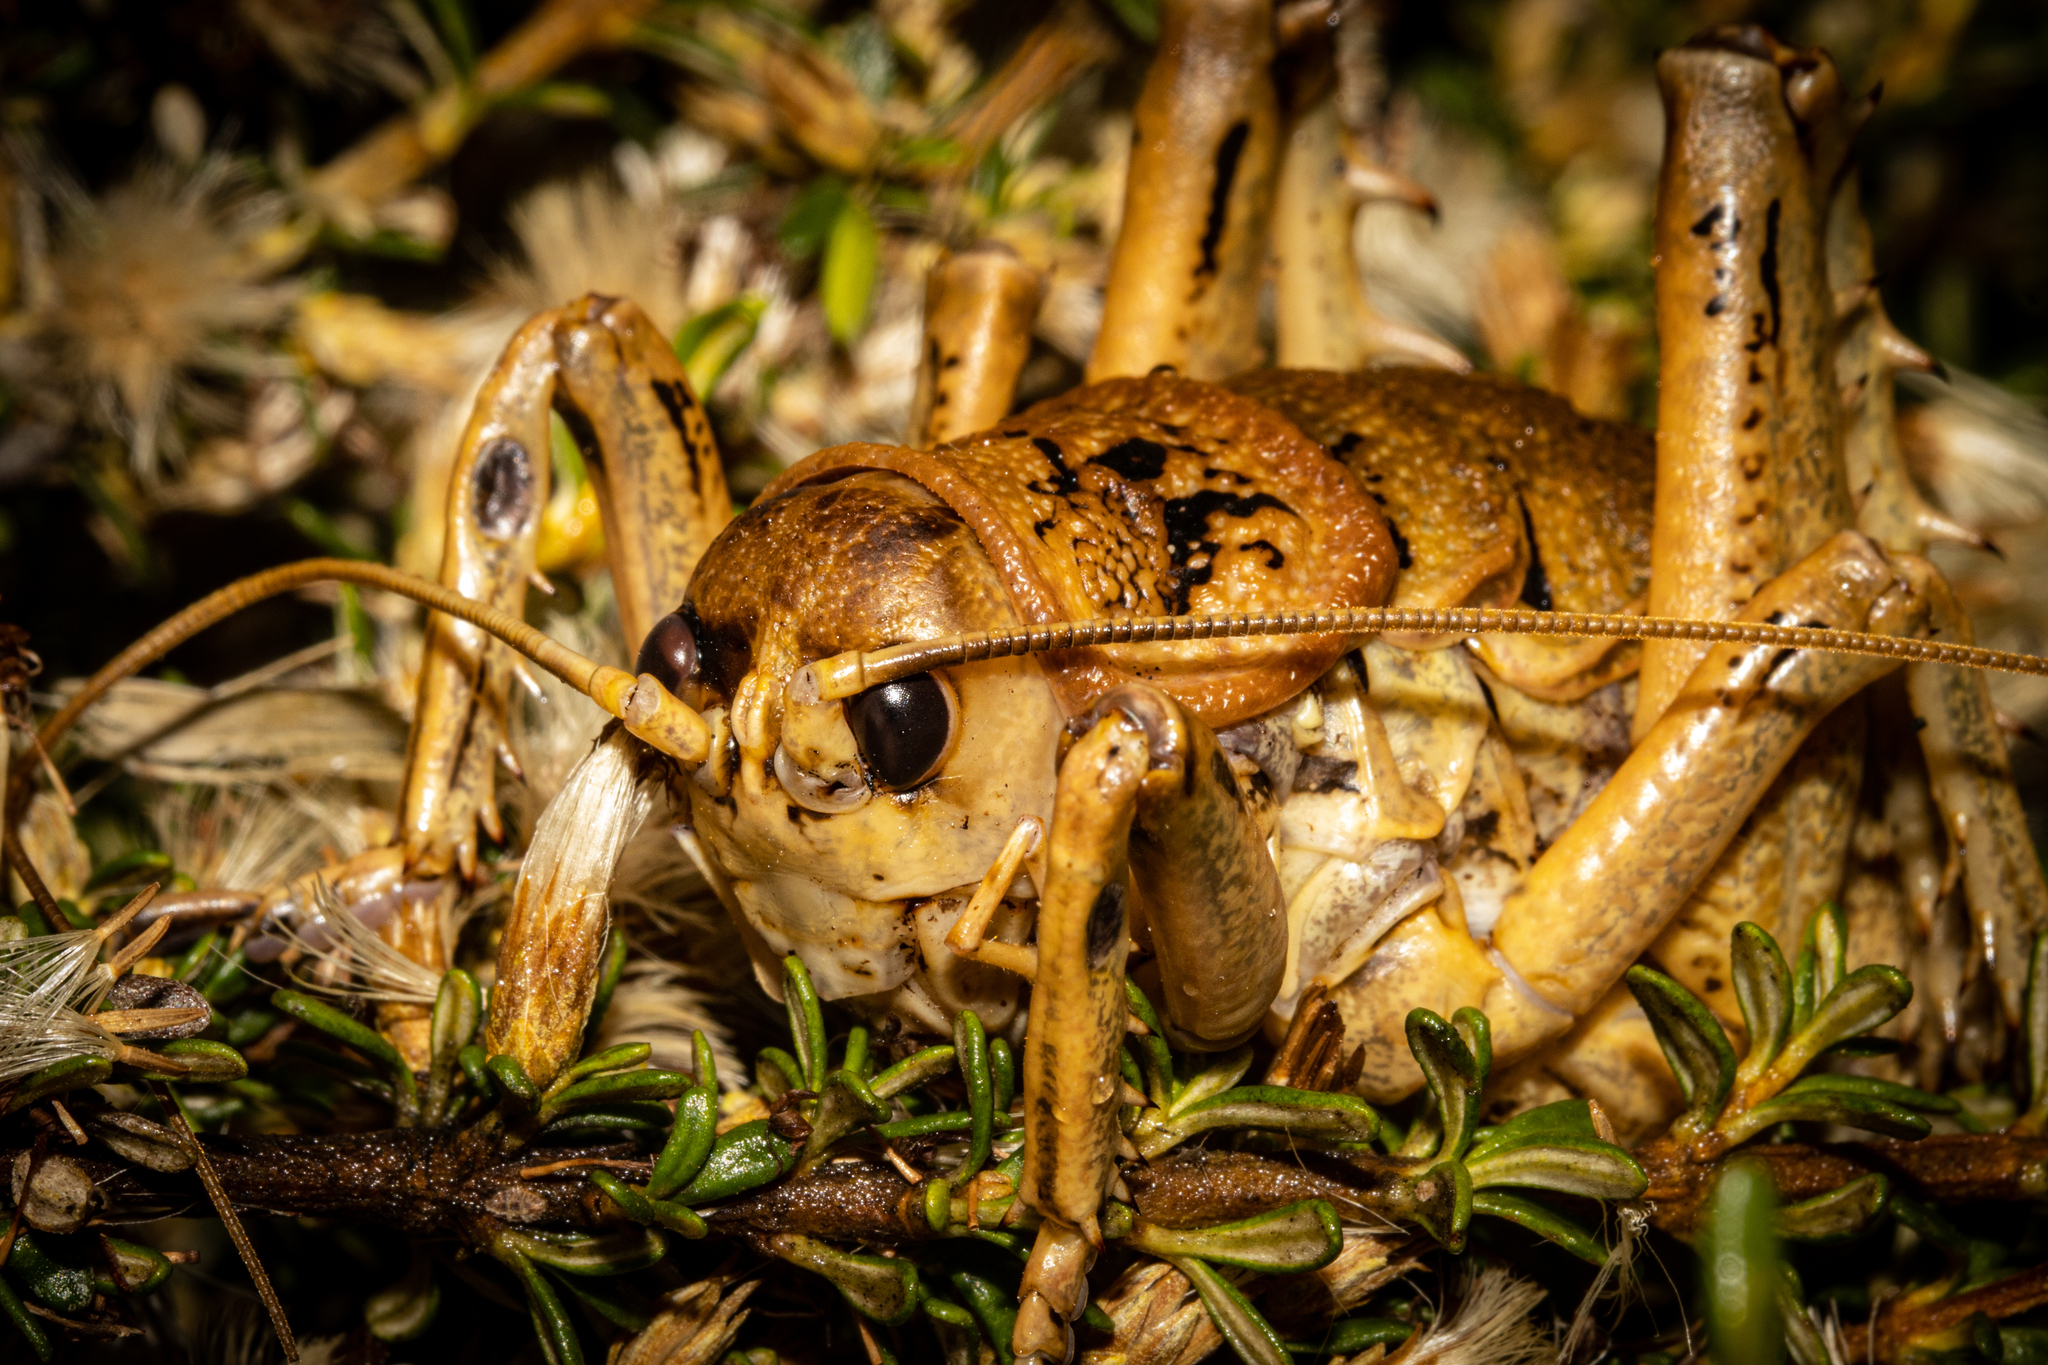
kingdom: Animalia
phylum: Arthropoda
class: Insecta
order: Orthoptera
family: Anostostomatidae
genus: Deinacrida
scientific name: Deinacrida rugosa
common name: Stephens island weta
